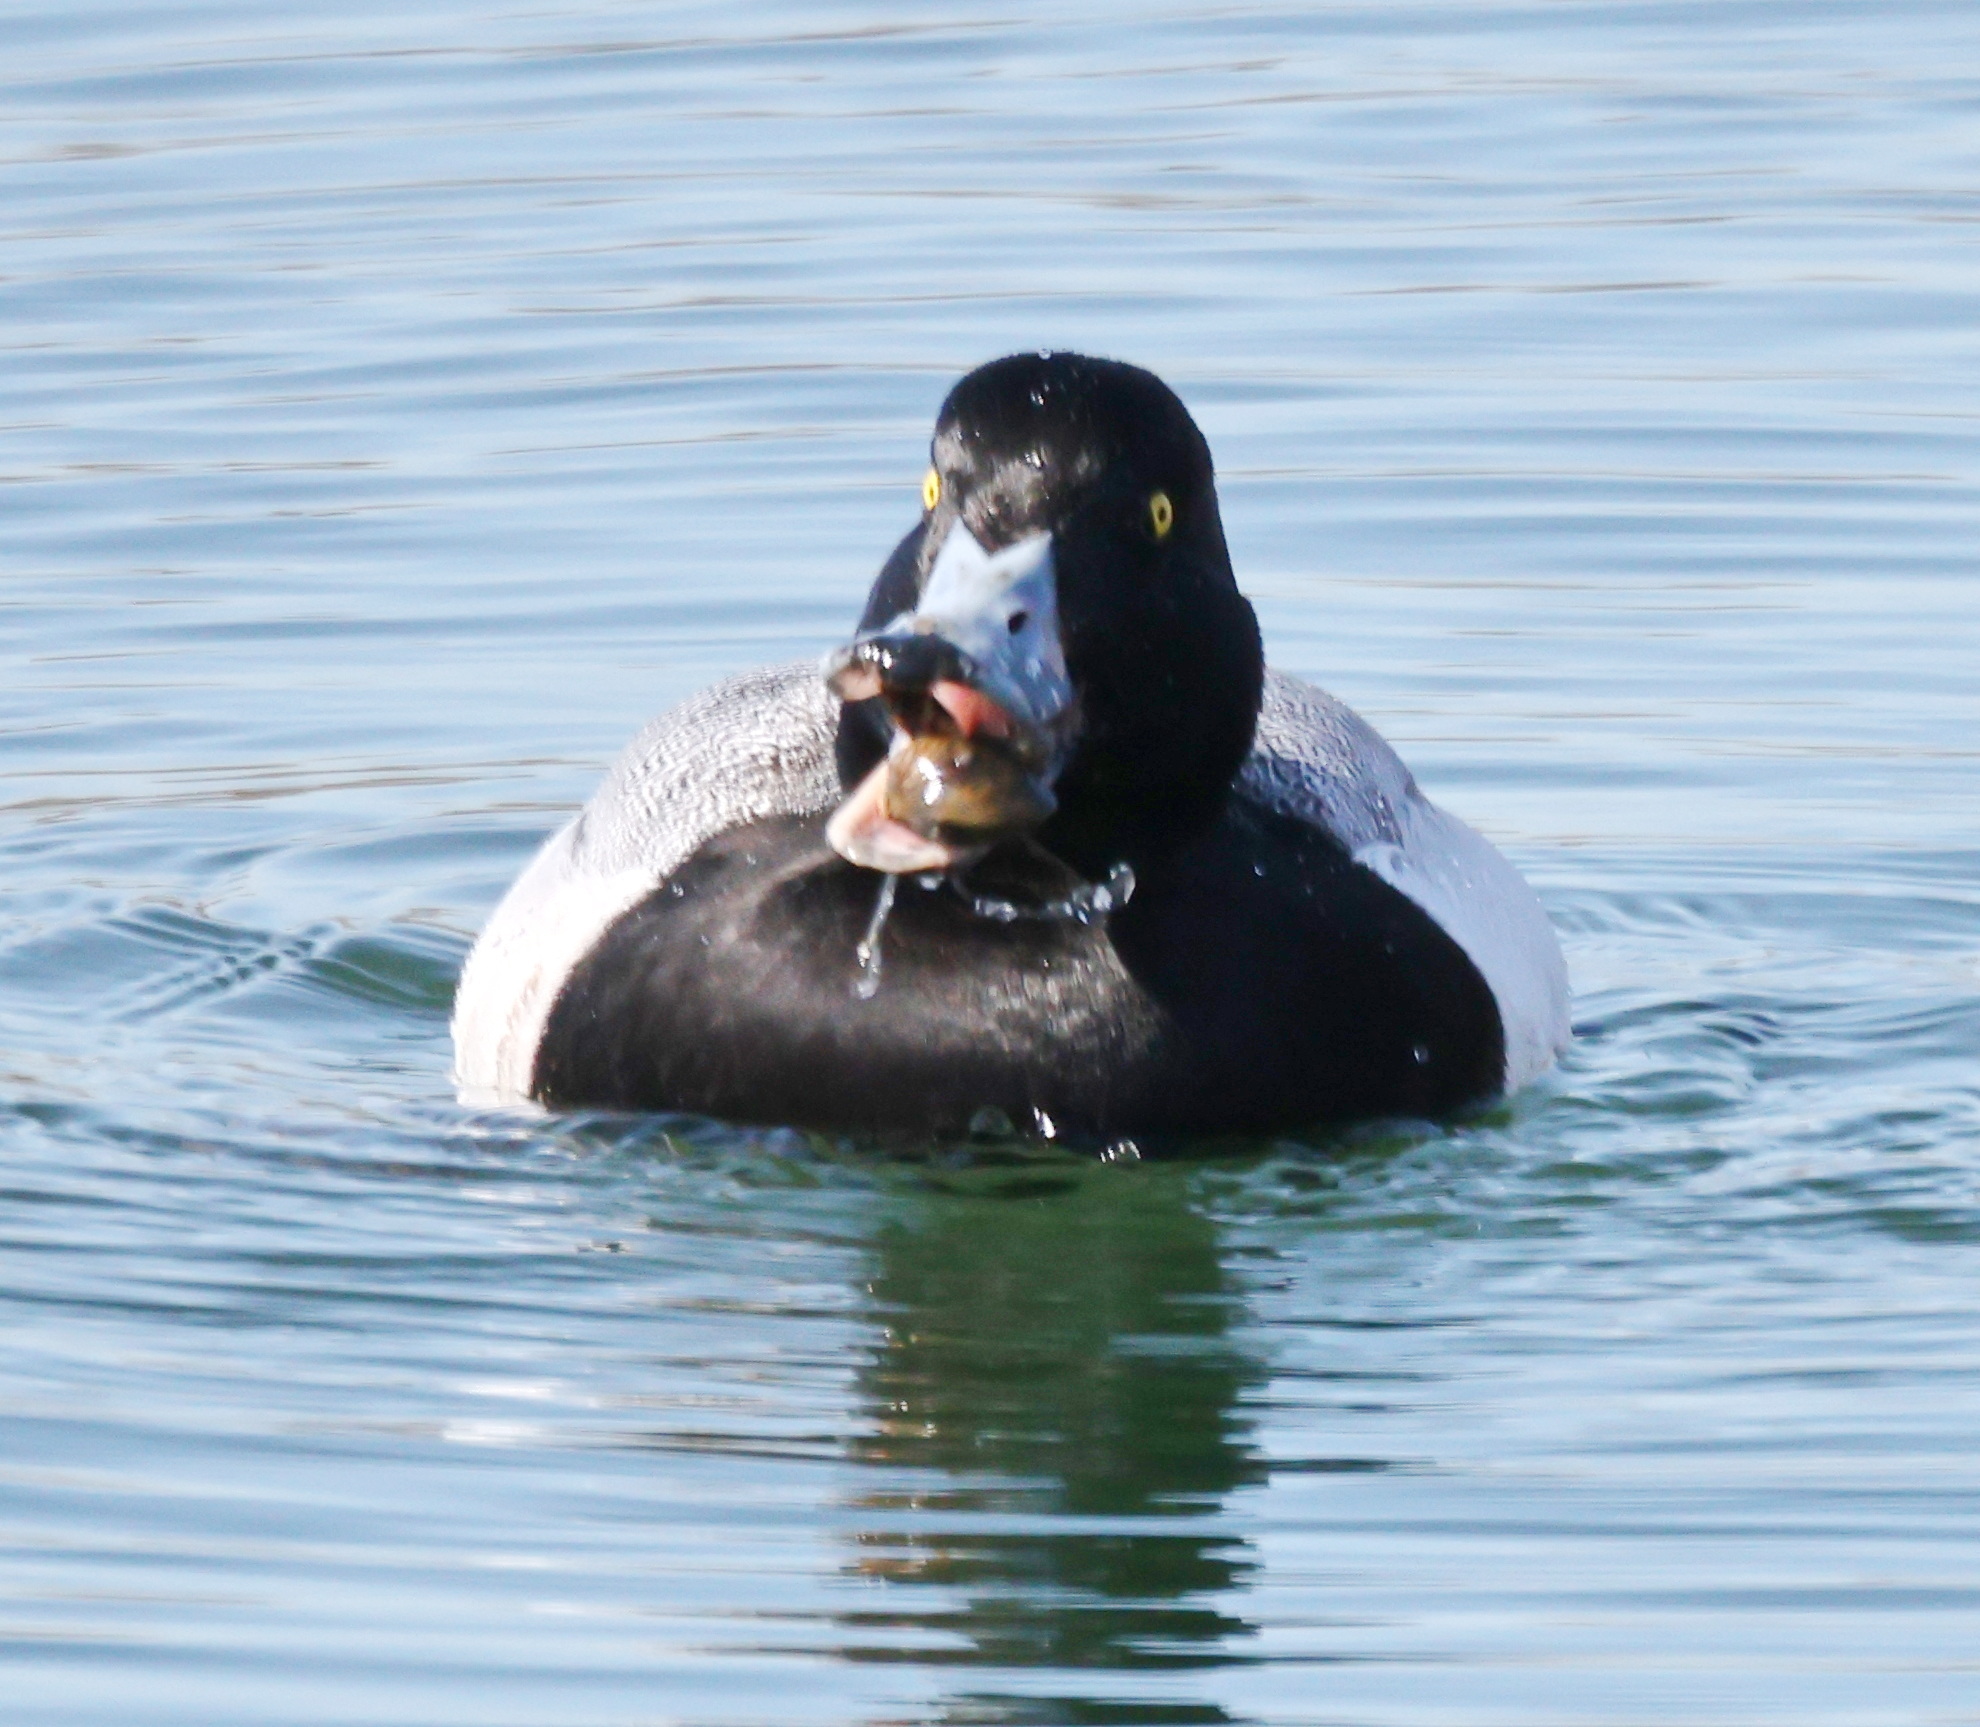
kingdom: Animalia
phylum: Chordata
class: Aves
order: Anseriformes
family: Anatidae
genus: Aythya
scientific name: Aythya marila
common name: Greater scaup
